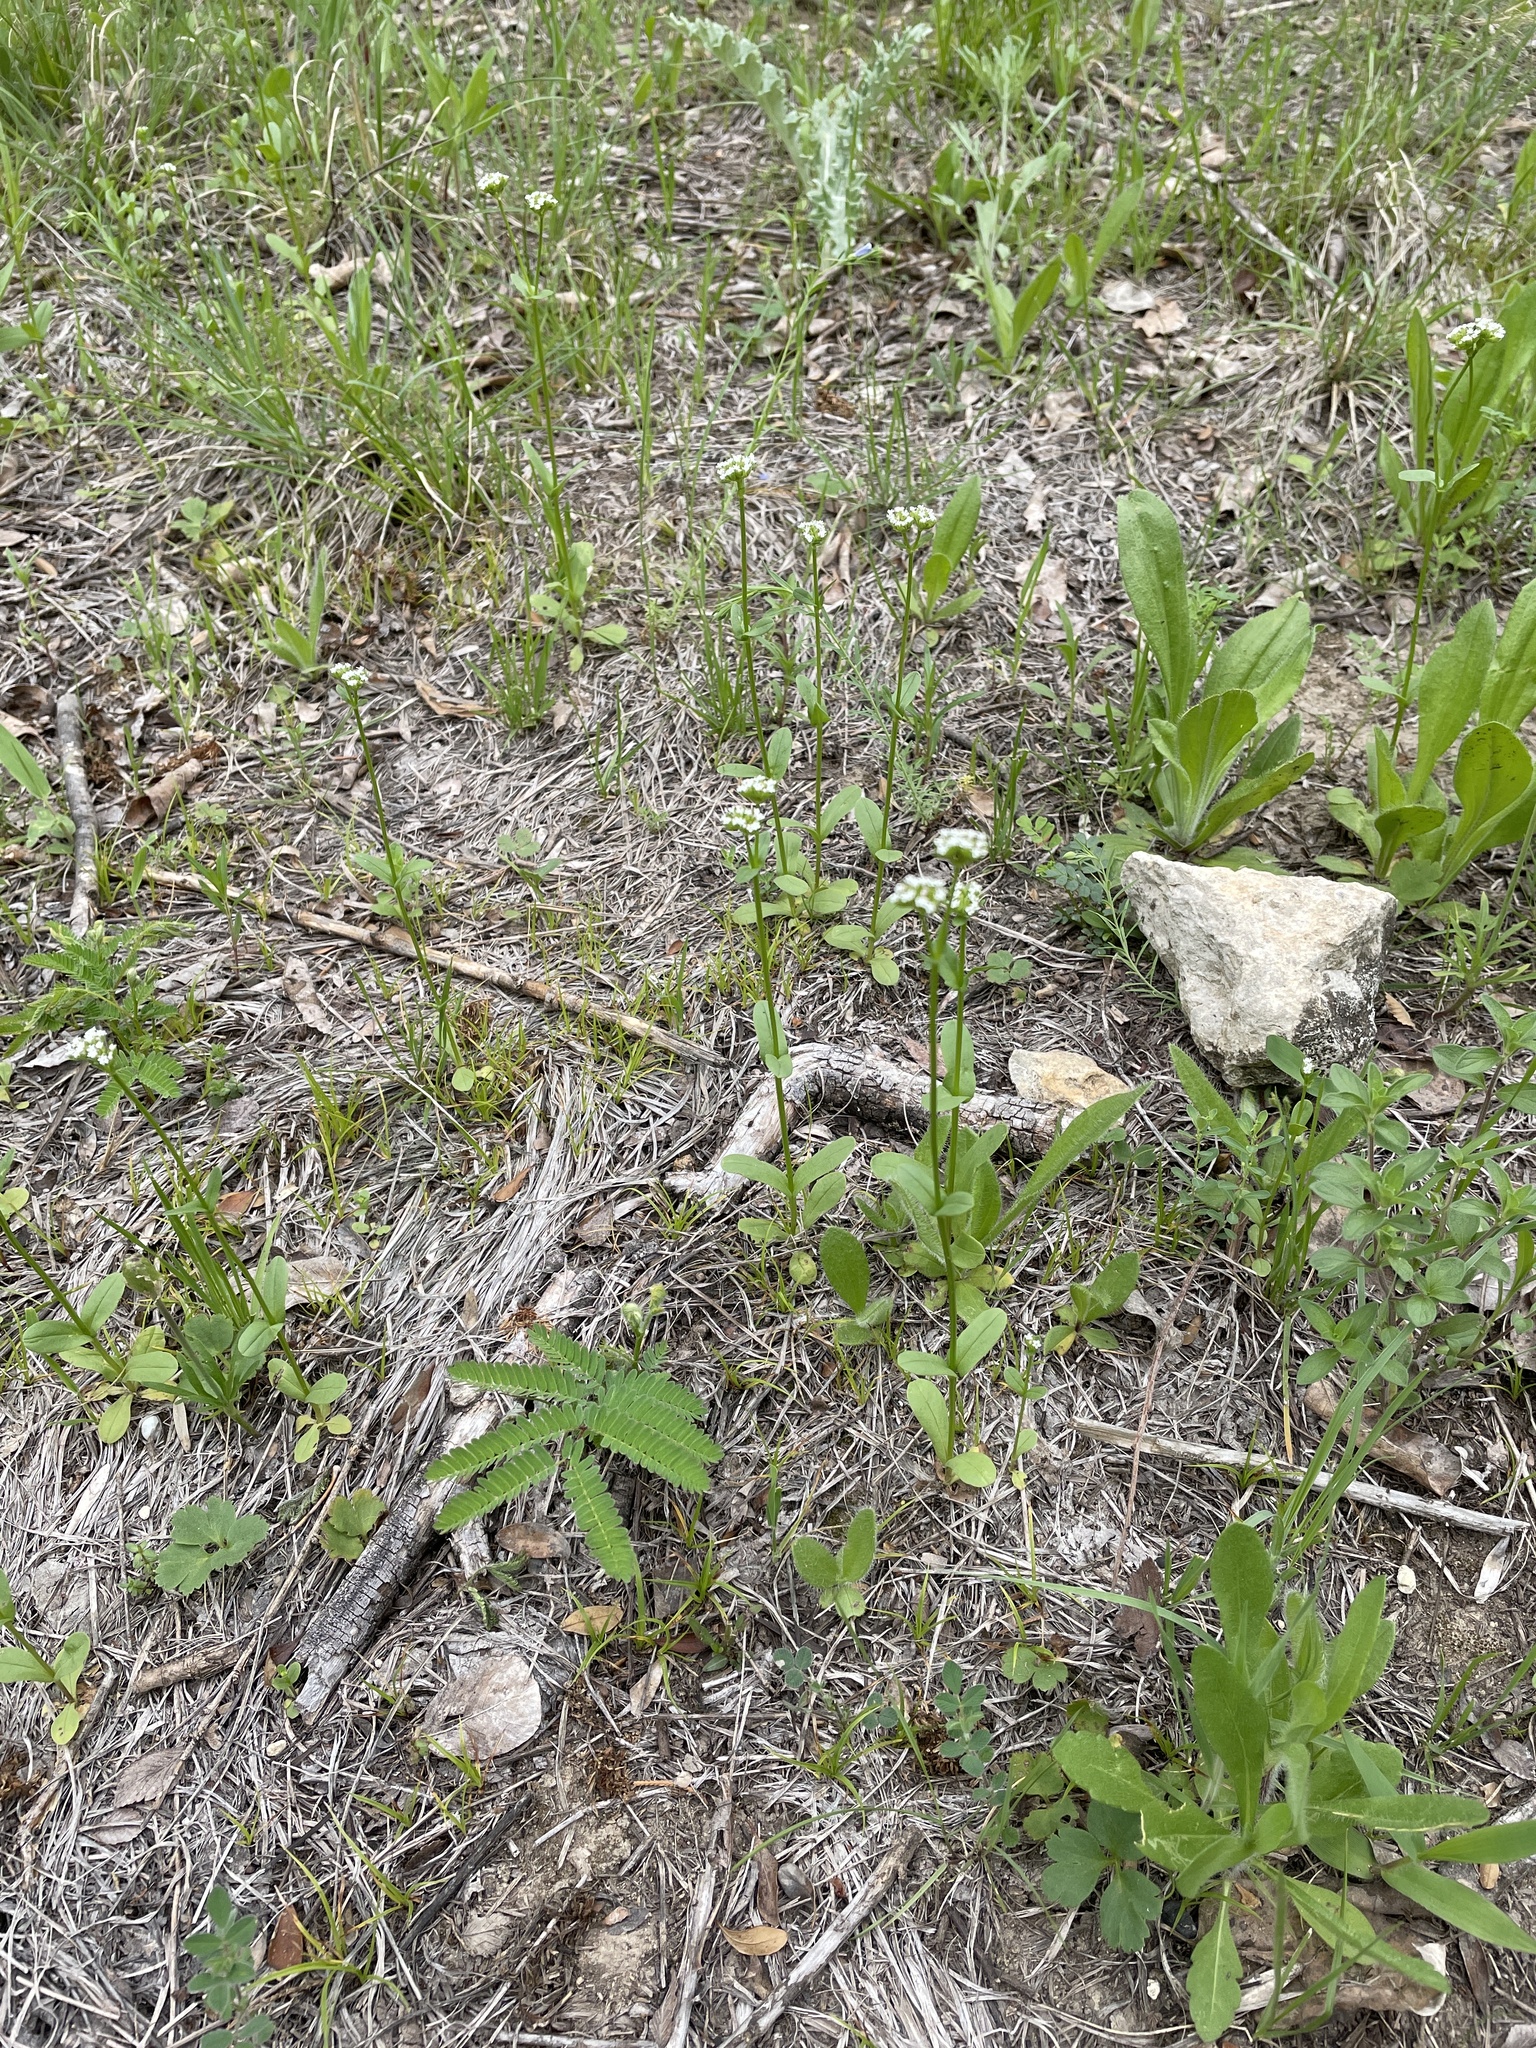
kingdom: Plantae
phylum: Tracheophyta
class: Magnoliopsida
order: Dipsacales
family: Caprifoliaceae
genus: Valerianella
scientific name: Valerianella radiata
